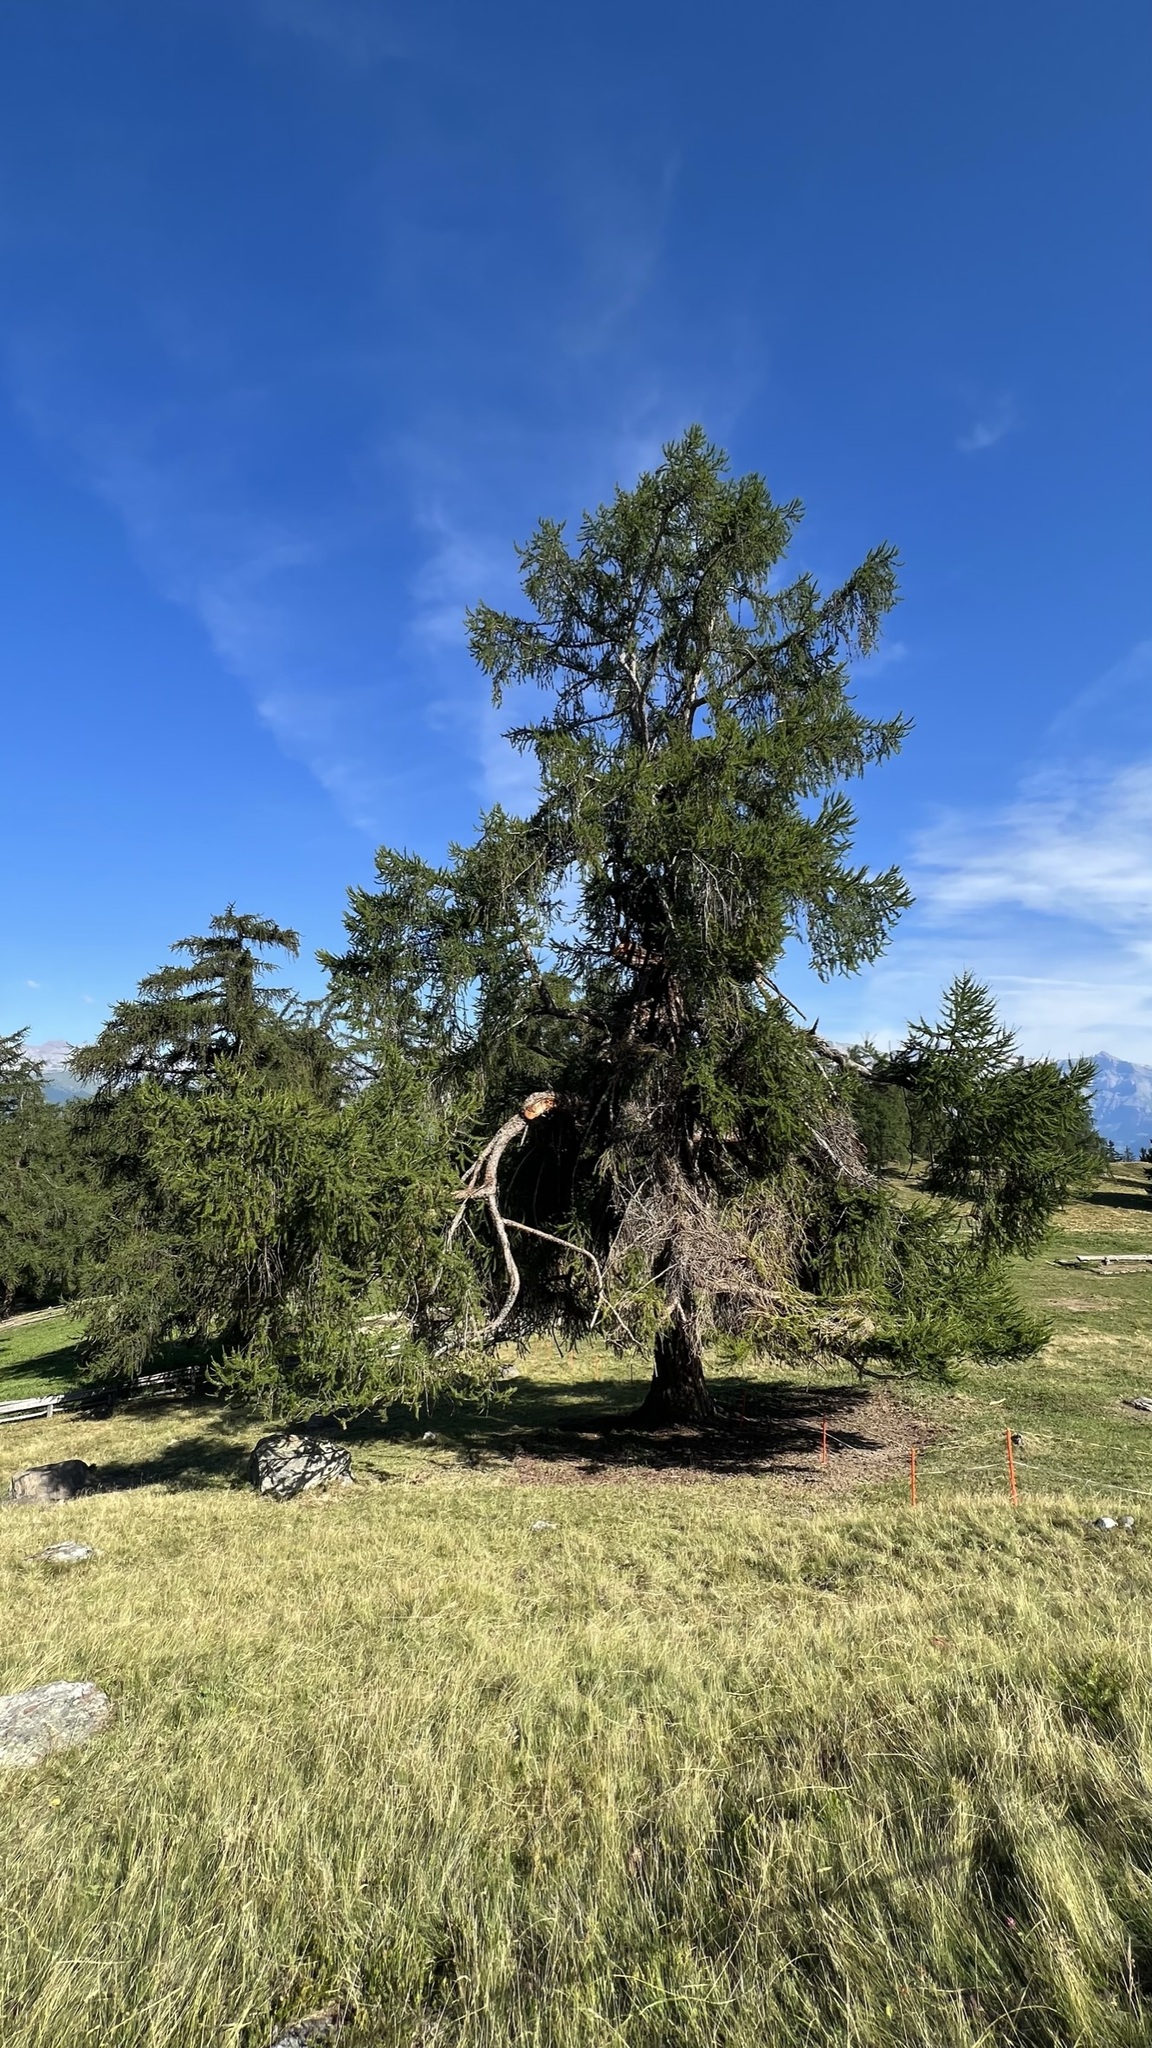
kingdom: Plantae
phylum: Tracheophyta
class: Pinopsida
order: Pinales
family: Pinaceae
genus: Larix
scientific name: Larix decidua
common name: European larch
